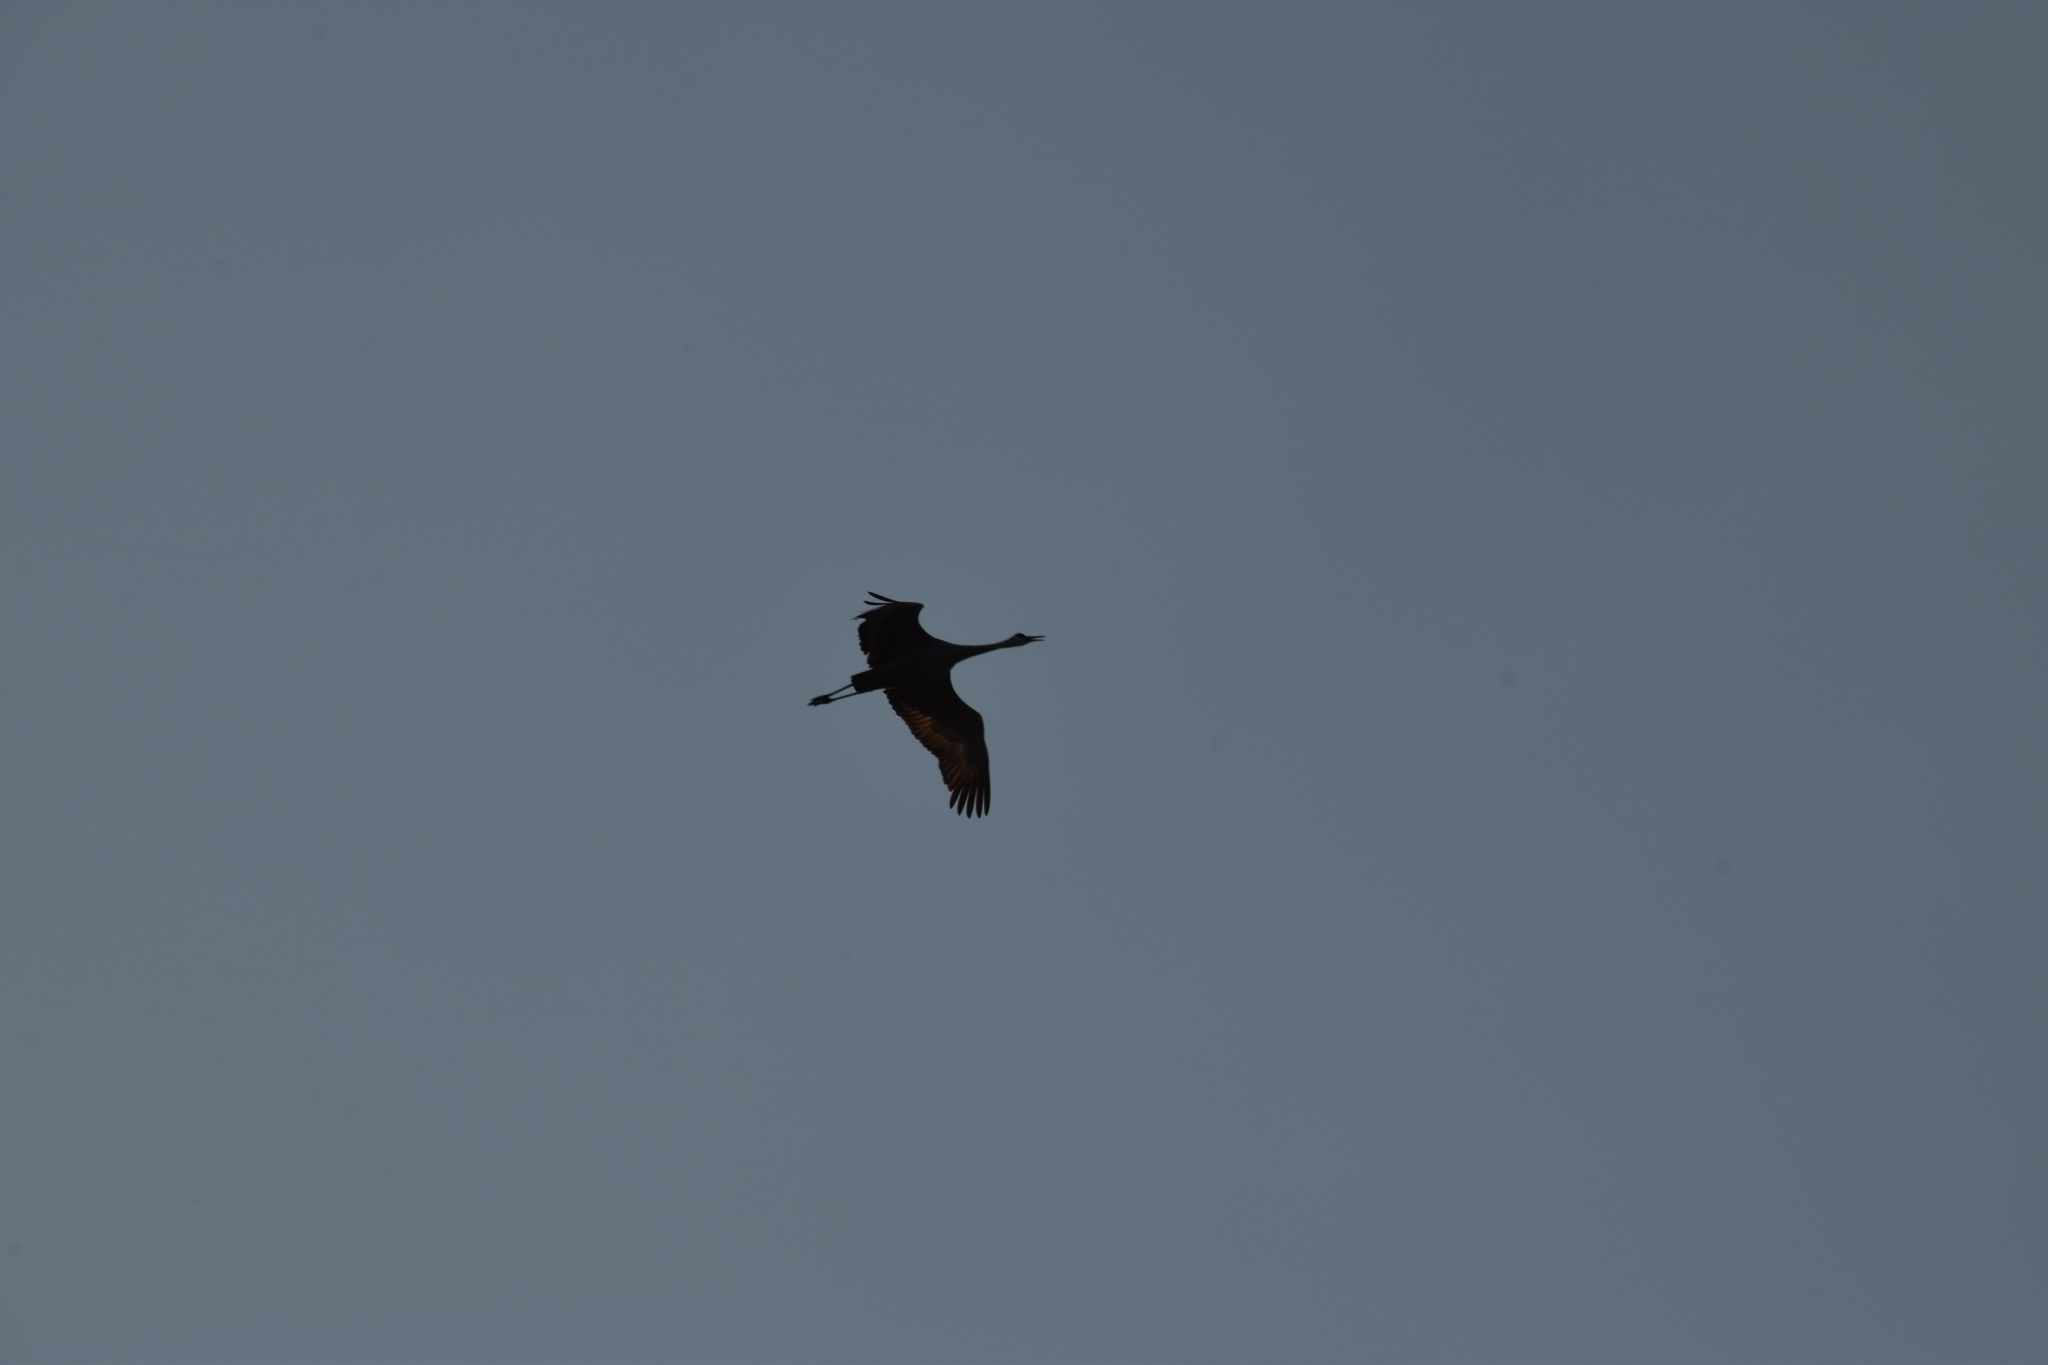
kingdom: Animalia
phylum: Chordata
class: Aves
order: Gruiformes
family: Gruidae
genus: Grus
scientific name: Grus canadensis
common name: Sandhill crane
